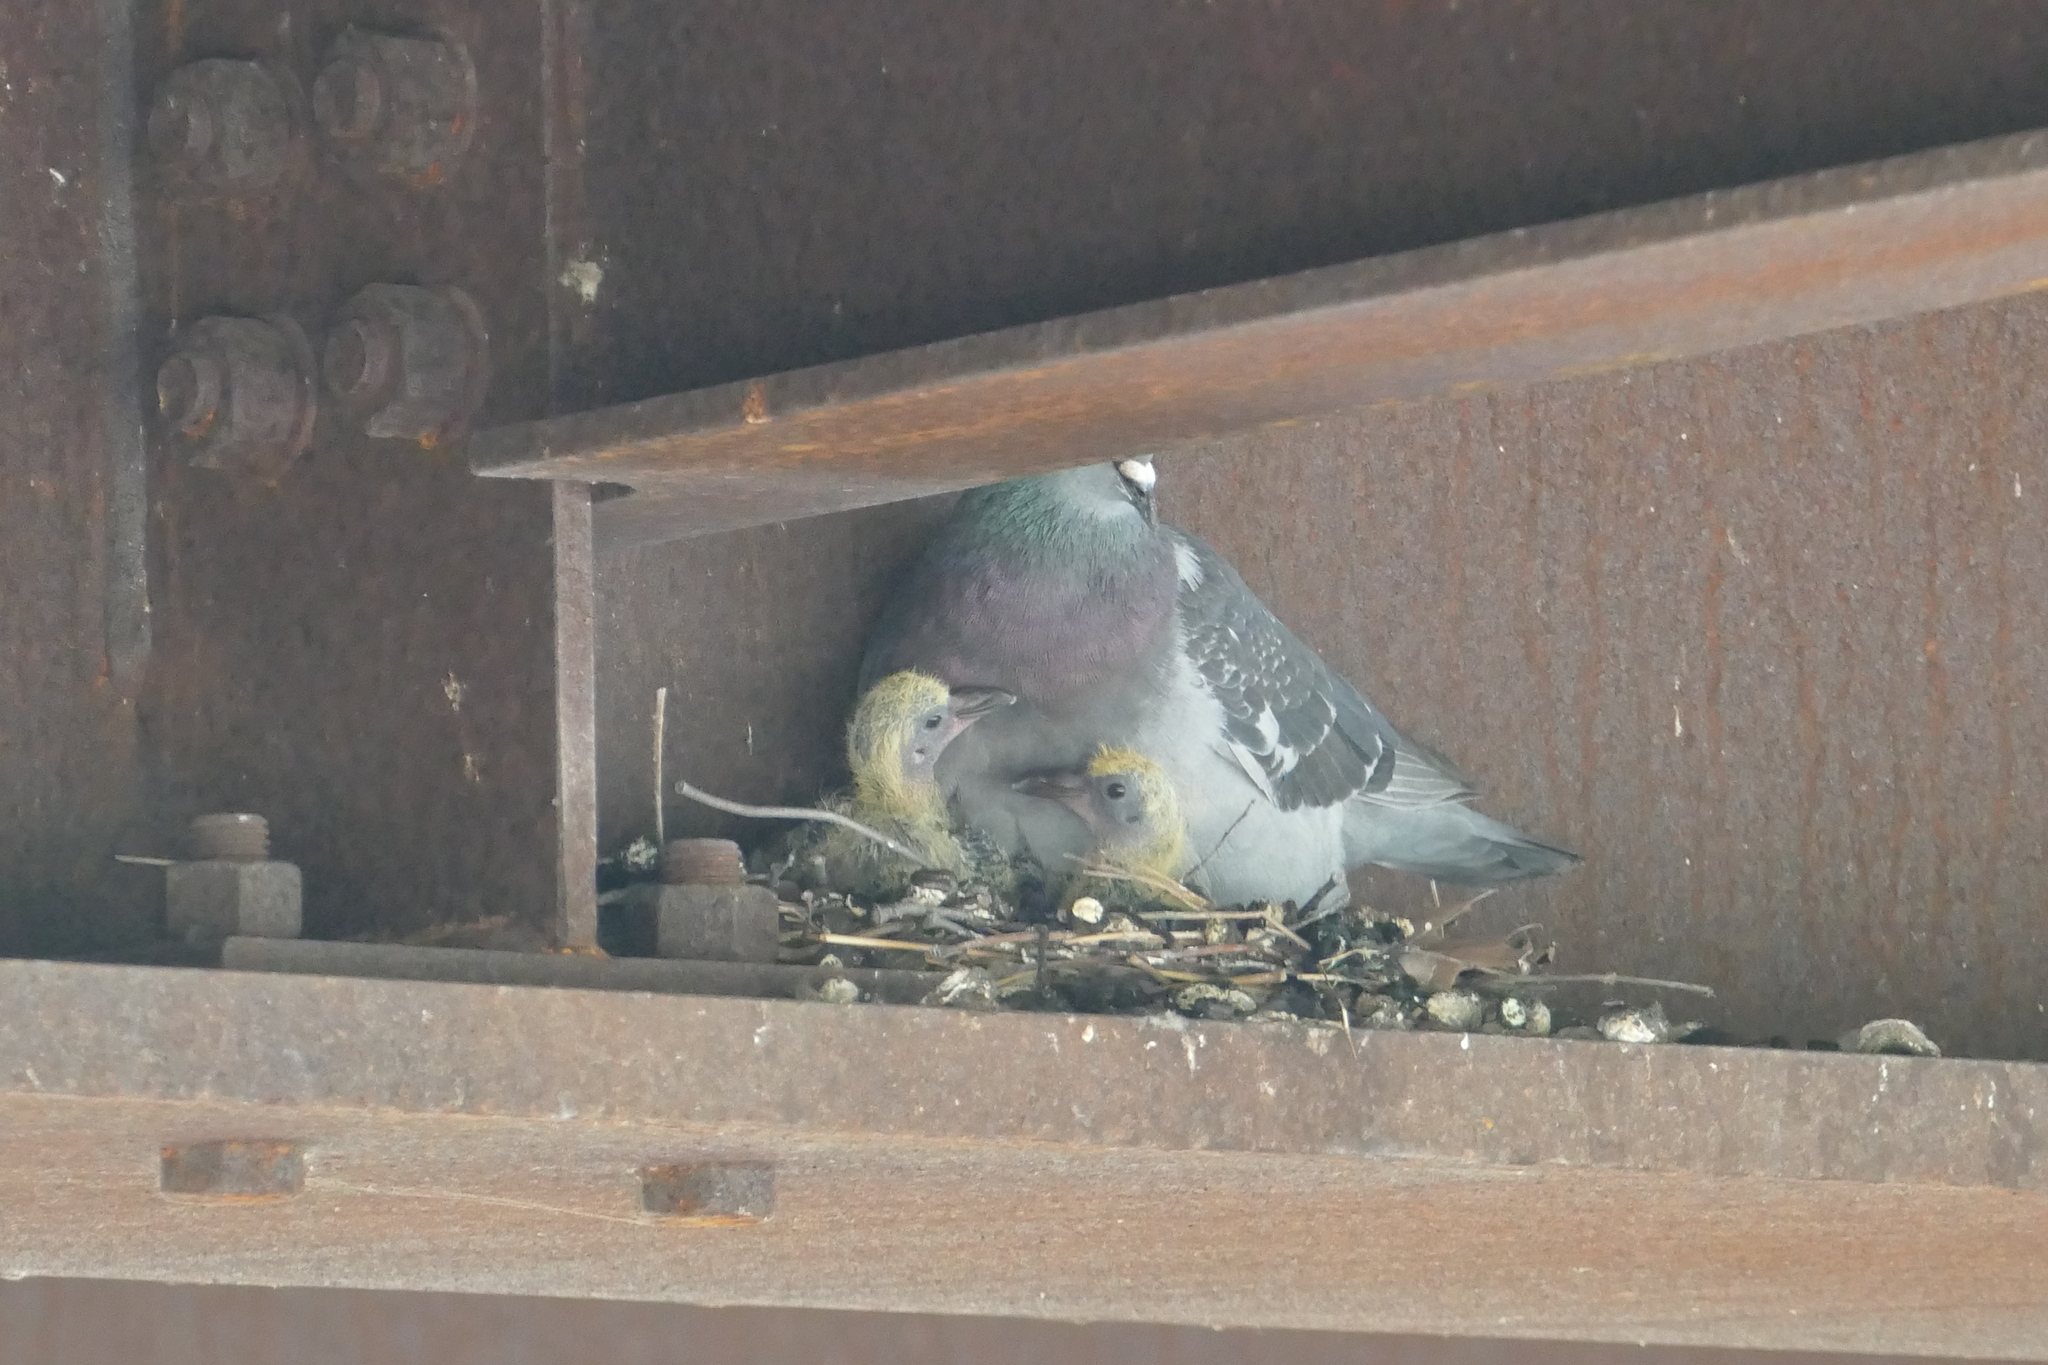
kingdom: Animalia
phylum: Chordata
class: Aves
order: Columbiformes
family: Columbidae
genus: Columba
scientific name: Columba livia
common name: Rock pigeon
